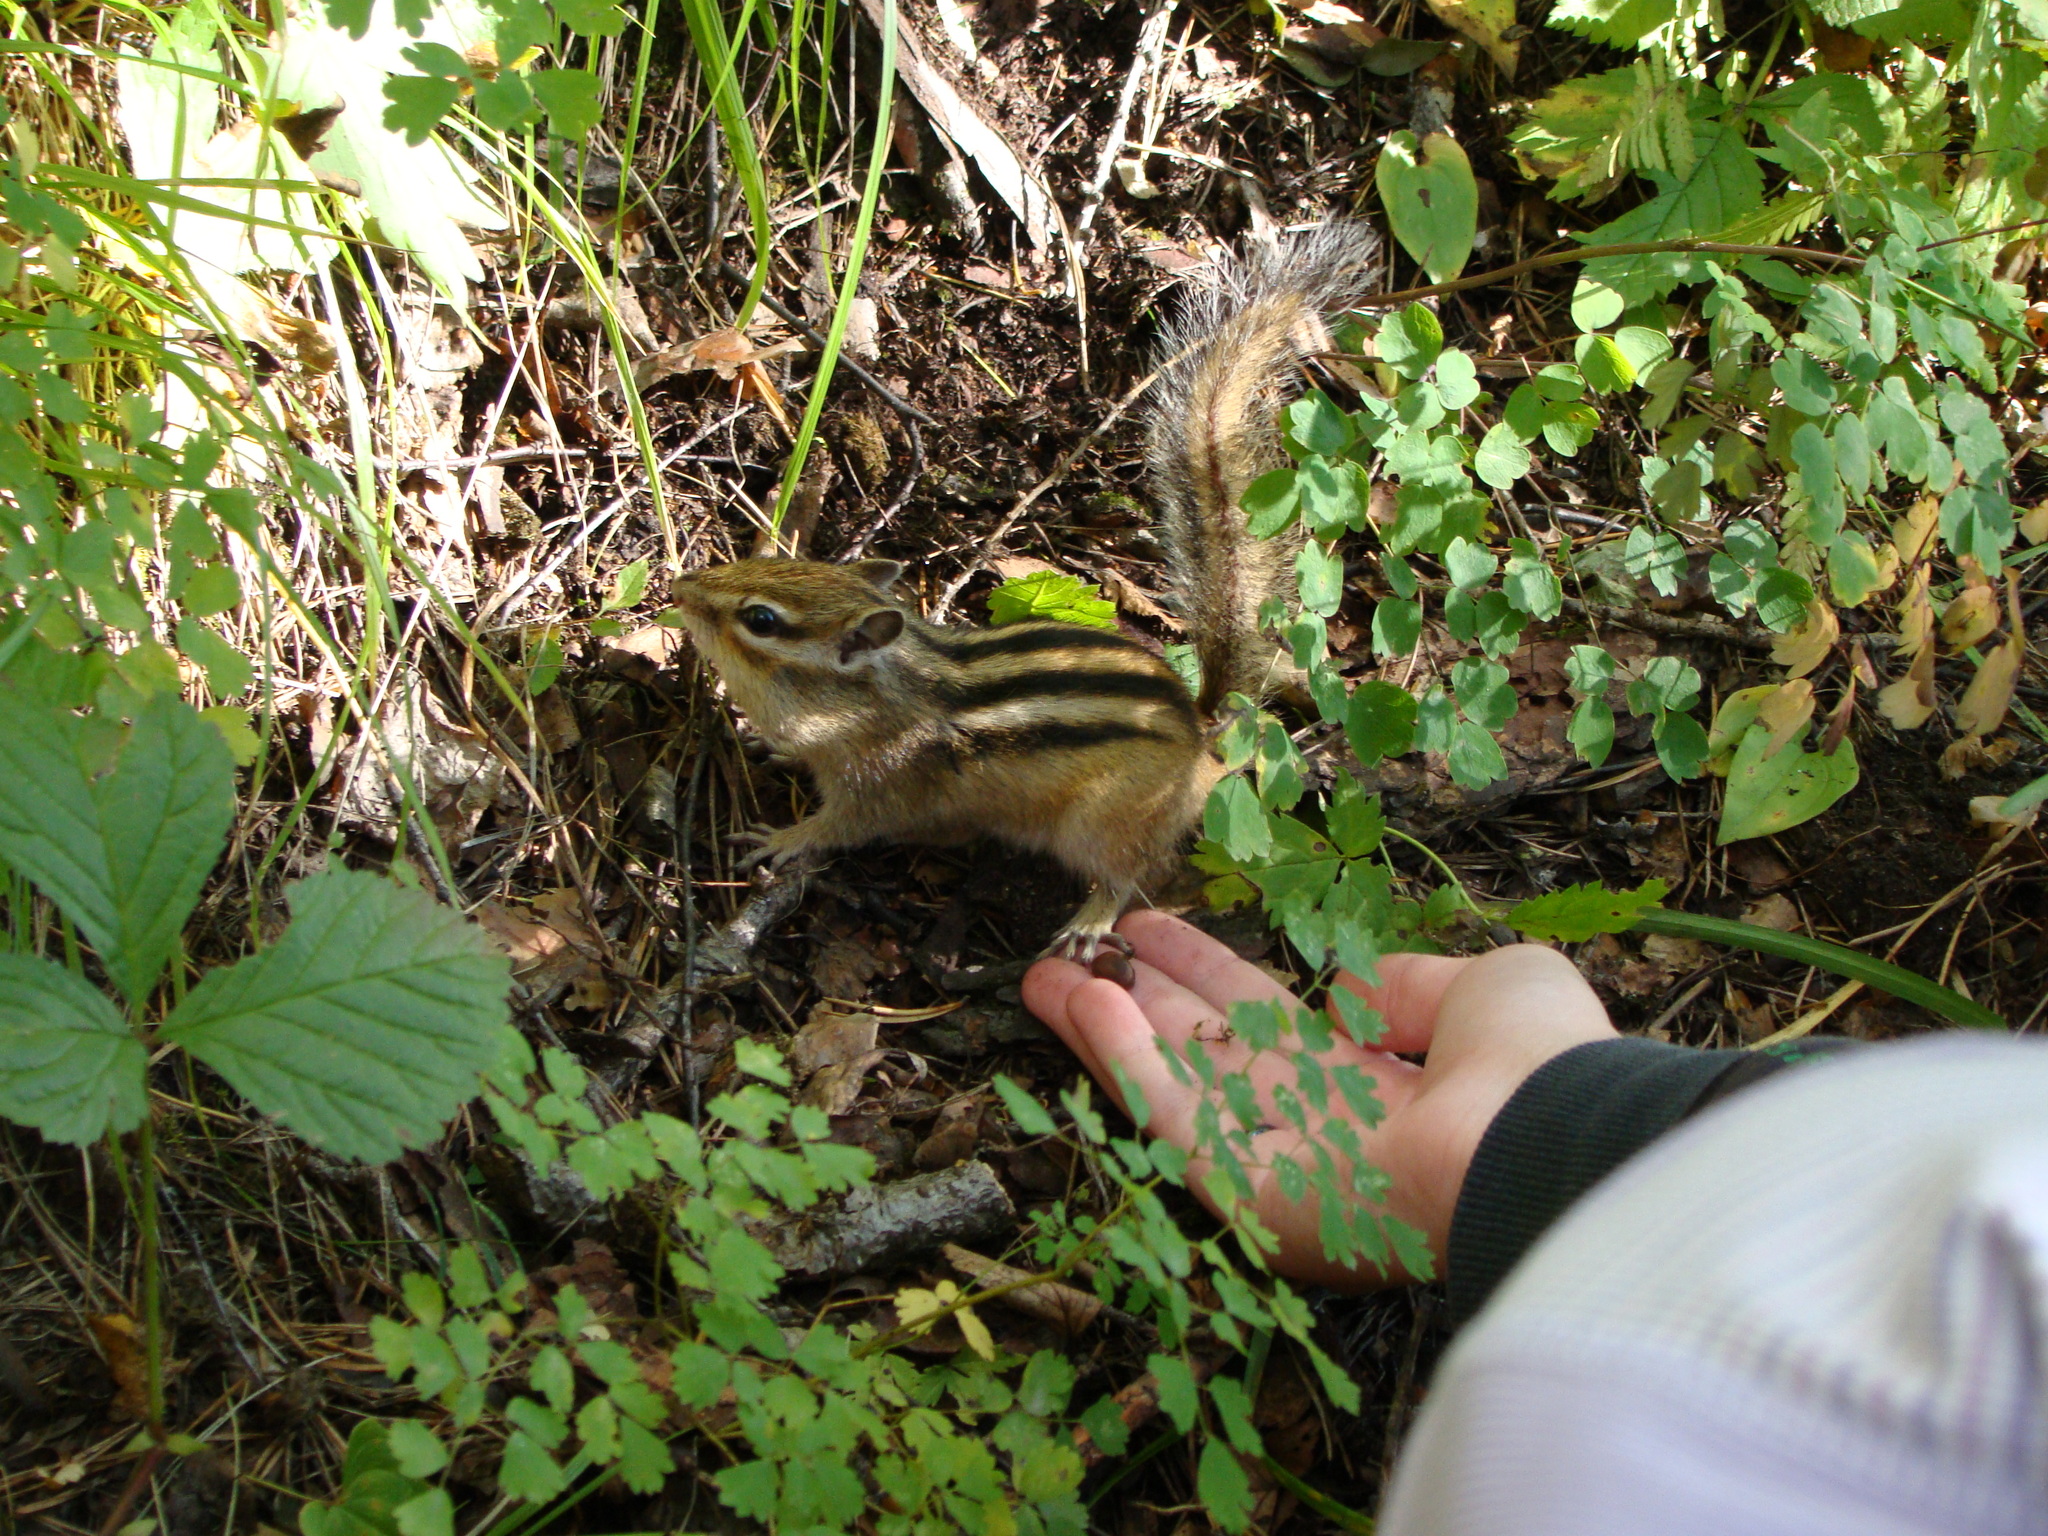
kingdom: Animalia
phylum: Chordata
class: Mammalia
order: Rodentia
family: Sciuridae
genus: Tamias
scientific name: Tamias sibiricus
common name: Siberian chipmunk
